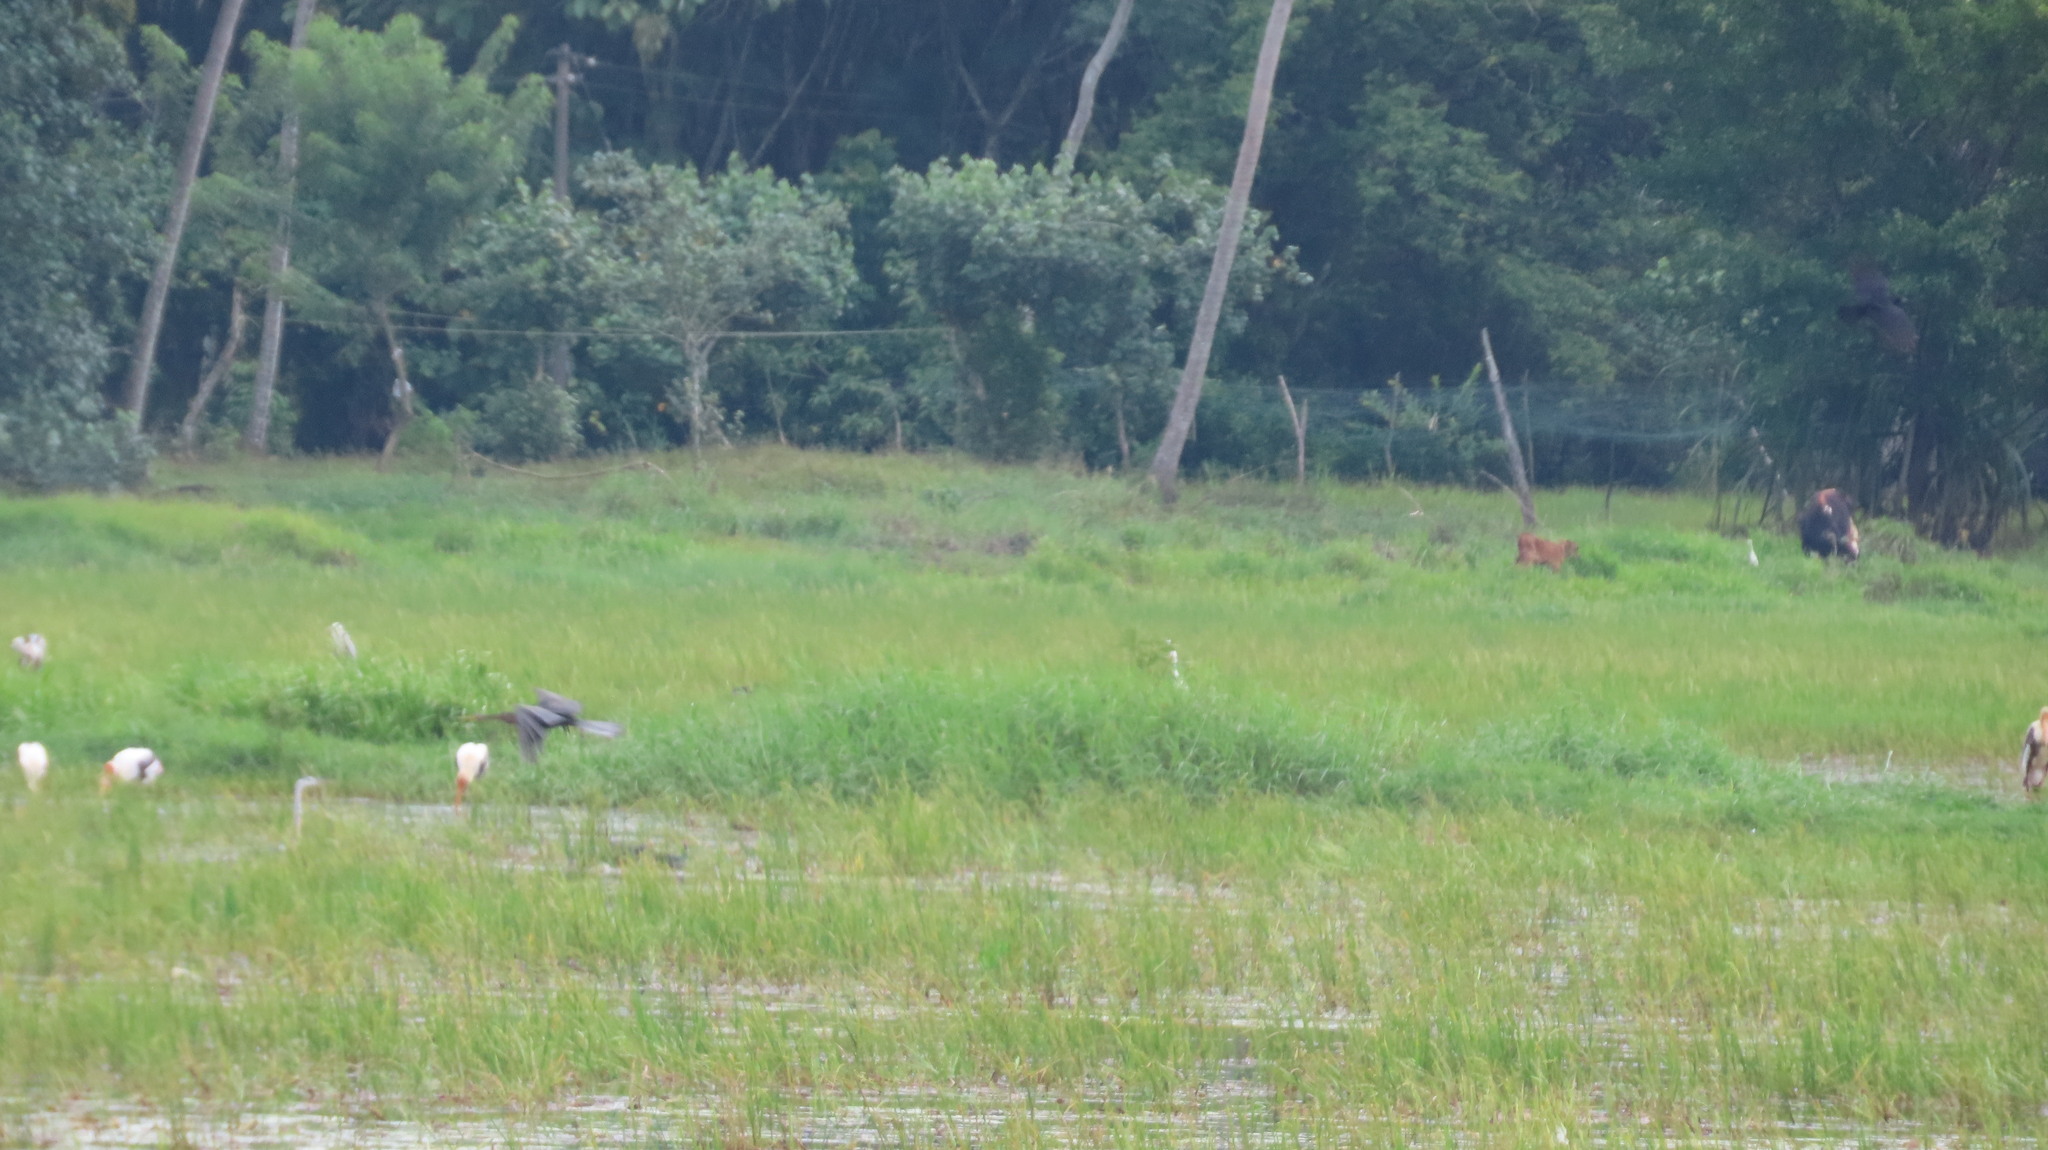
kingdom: Animalia
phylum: Chordata
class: Aves
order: Suliformes
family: Anhingidae
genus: Anhinga
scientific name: Anhinga melanogaster
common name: Oriental darter
